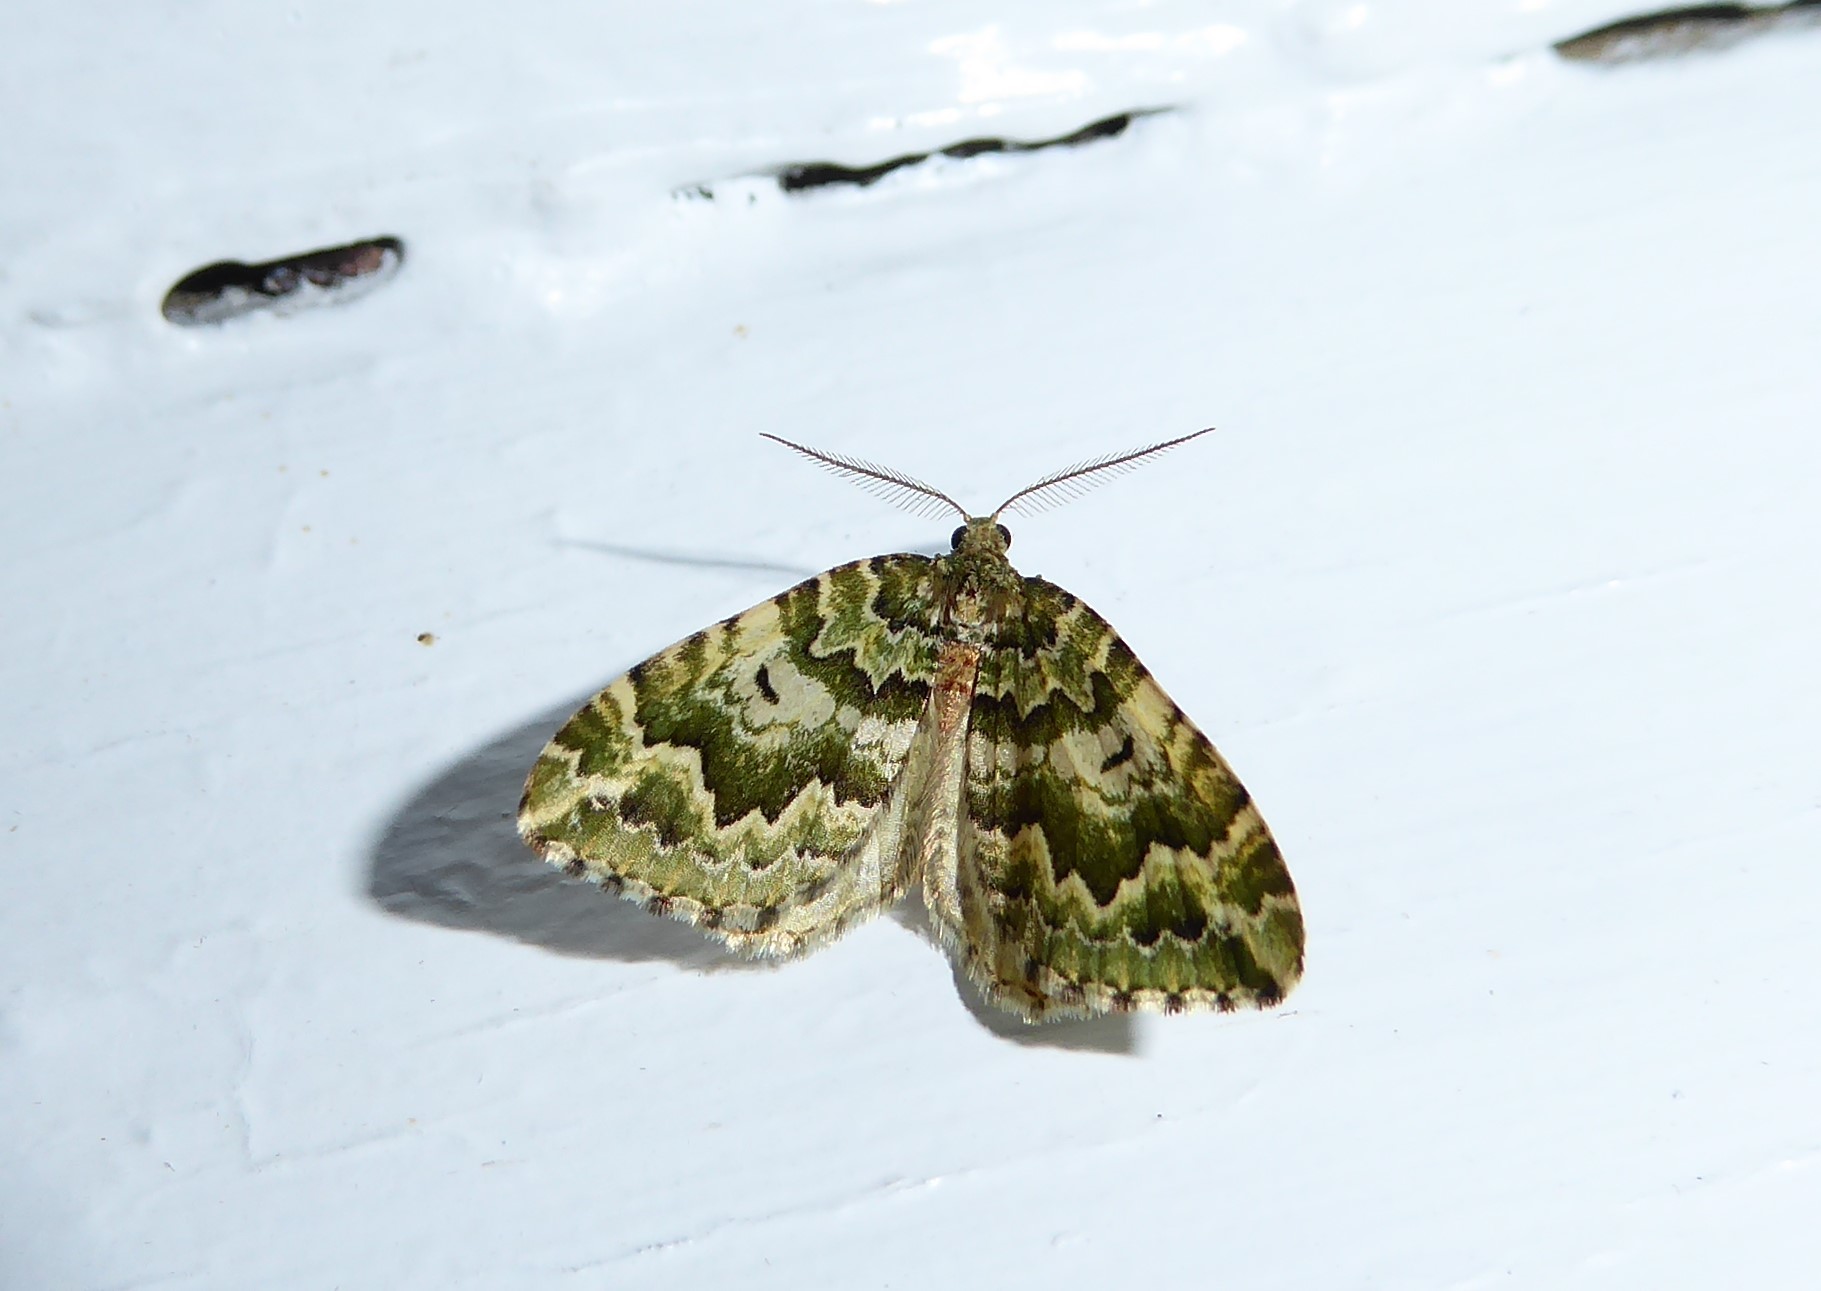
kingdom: Animalia
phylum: Arthropoda
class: Insecta
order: Lepidoptera
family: Geometridae
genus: Asaphodes
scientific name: Asaphodes beata
